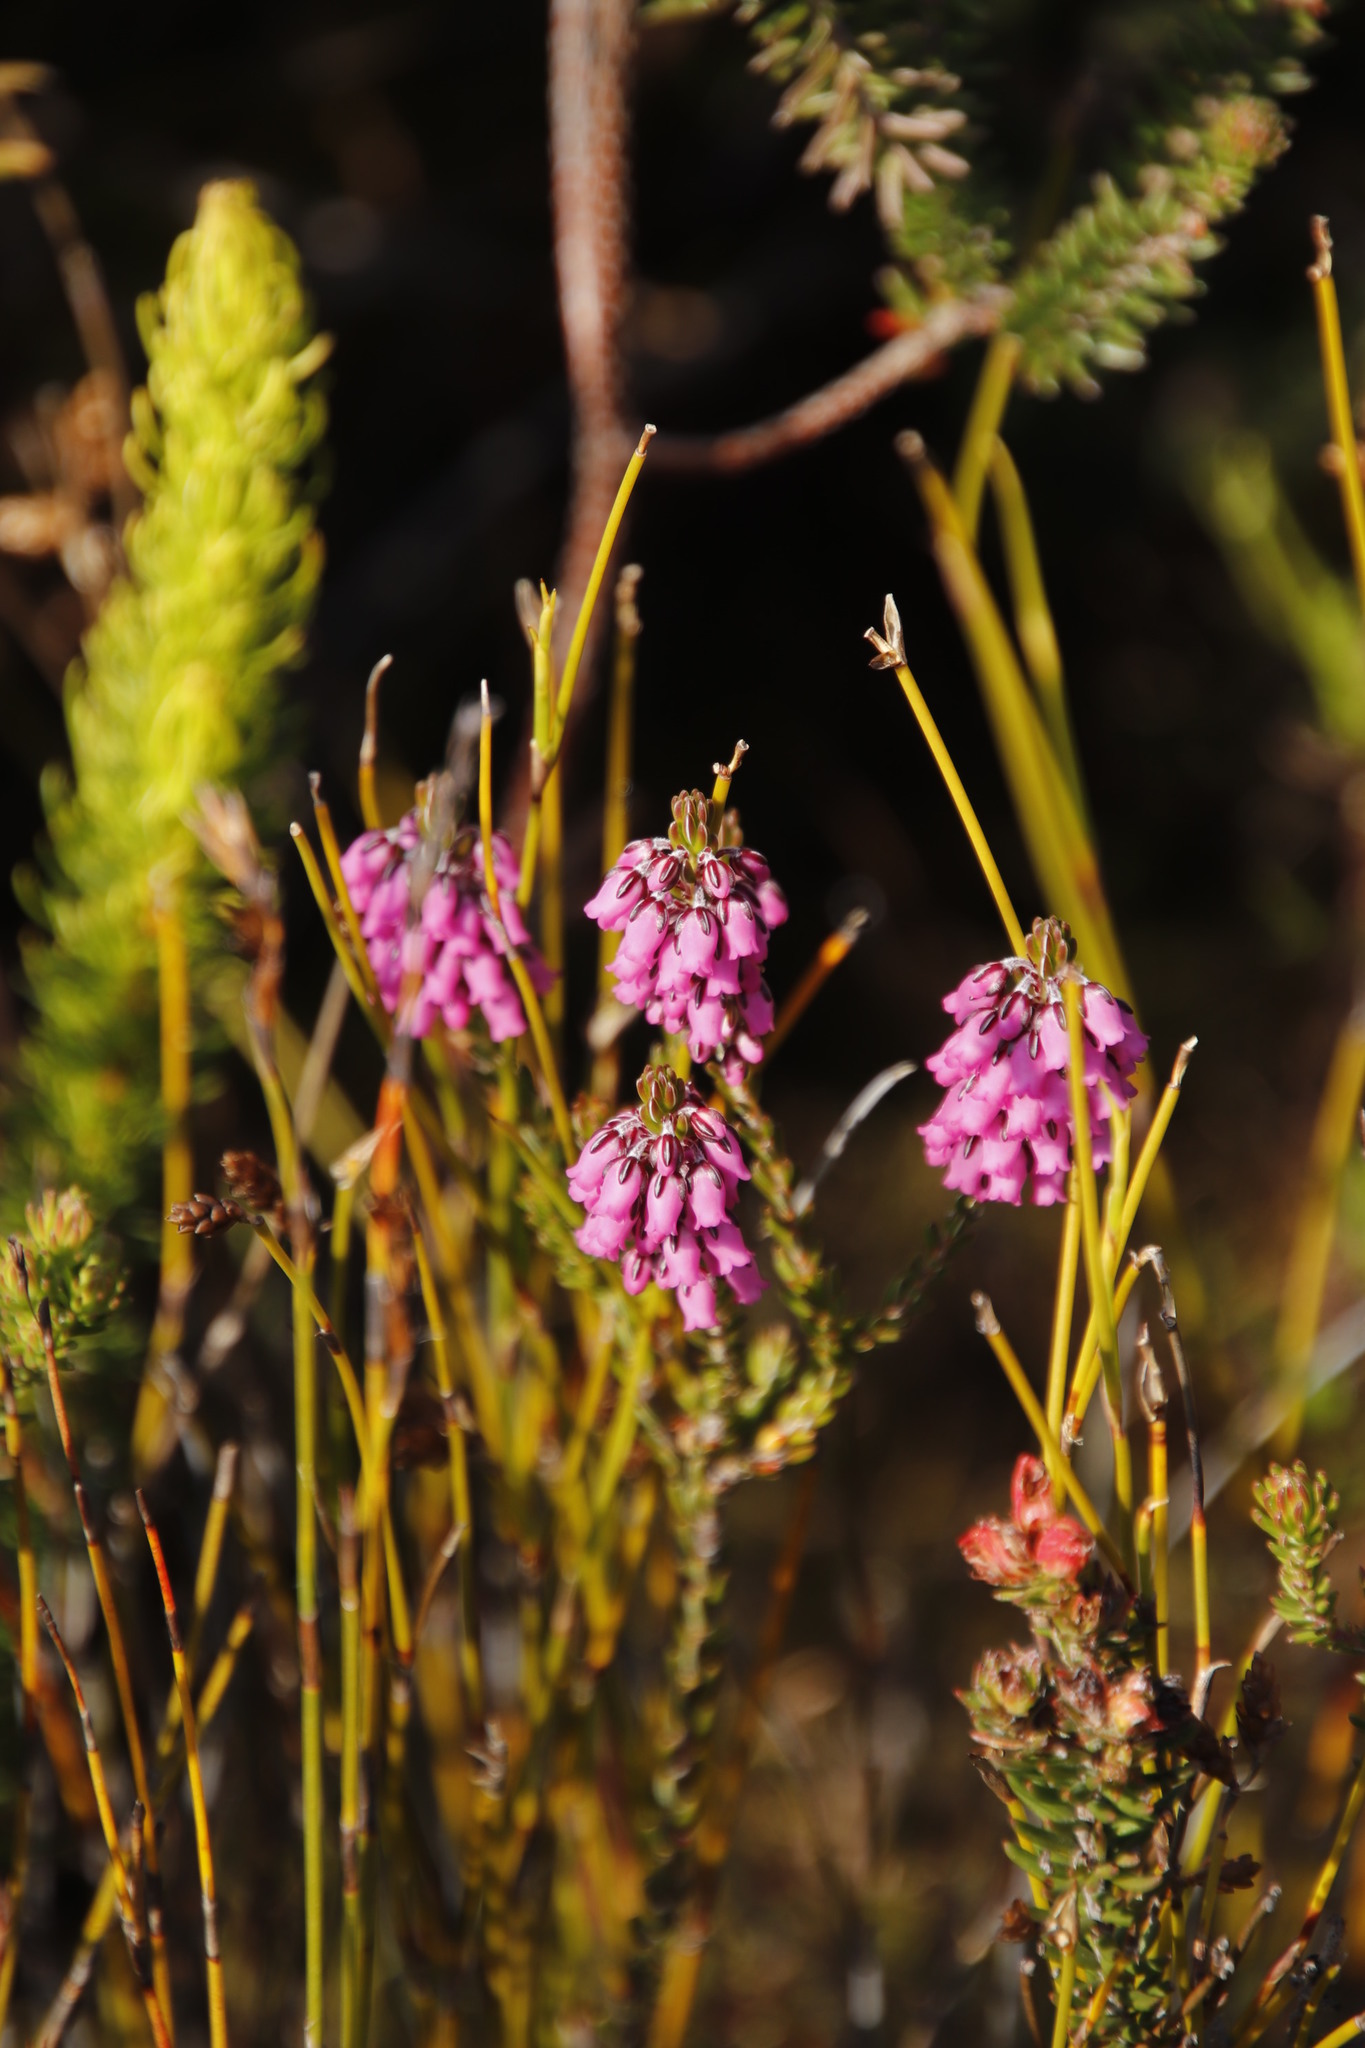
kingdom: Plantae
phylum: Tracheophyta
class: Magnoliopsida
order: Ericales
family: Ericaceae
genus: Erica
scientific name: Erica pulchella
